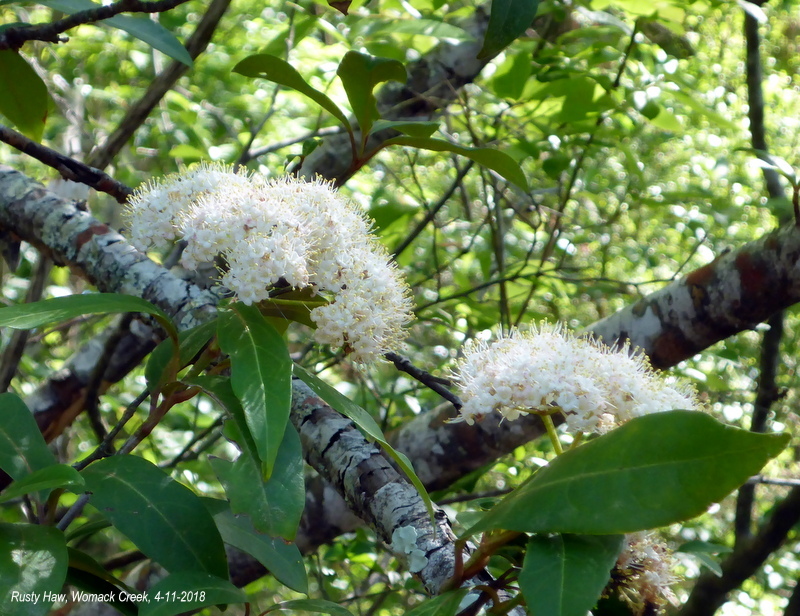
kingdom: Plantae
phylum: Tracheophyta
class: Magnoliopsida
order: Dipsacales
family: Viburnaceae
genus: Viburnum
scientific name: Viburnum nudum
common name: Possum haw
